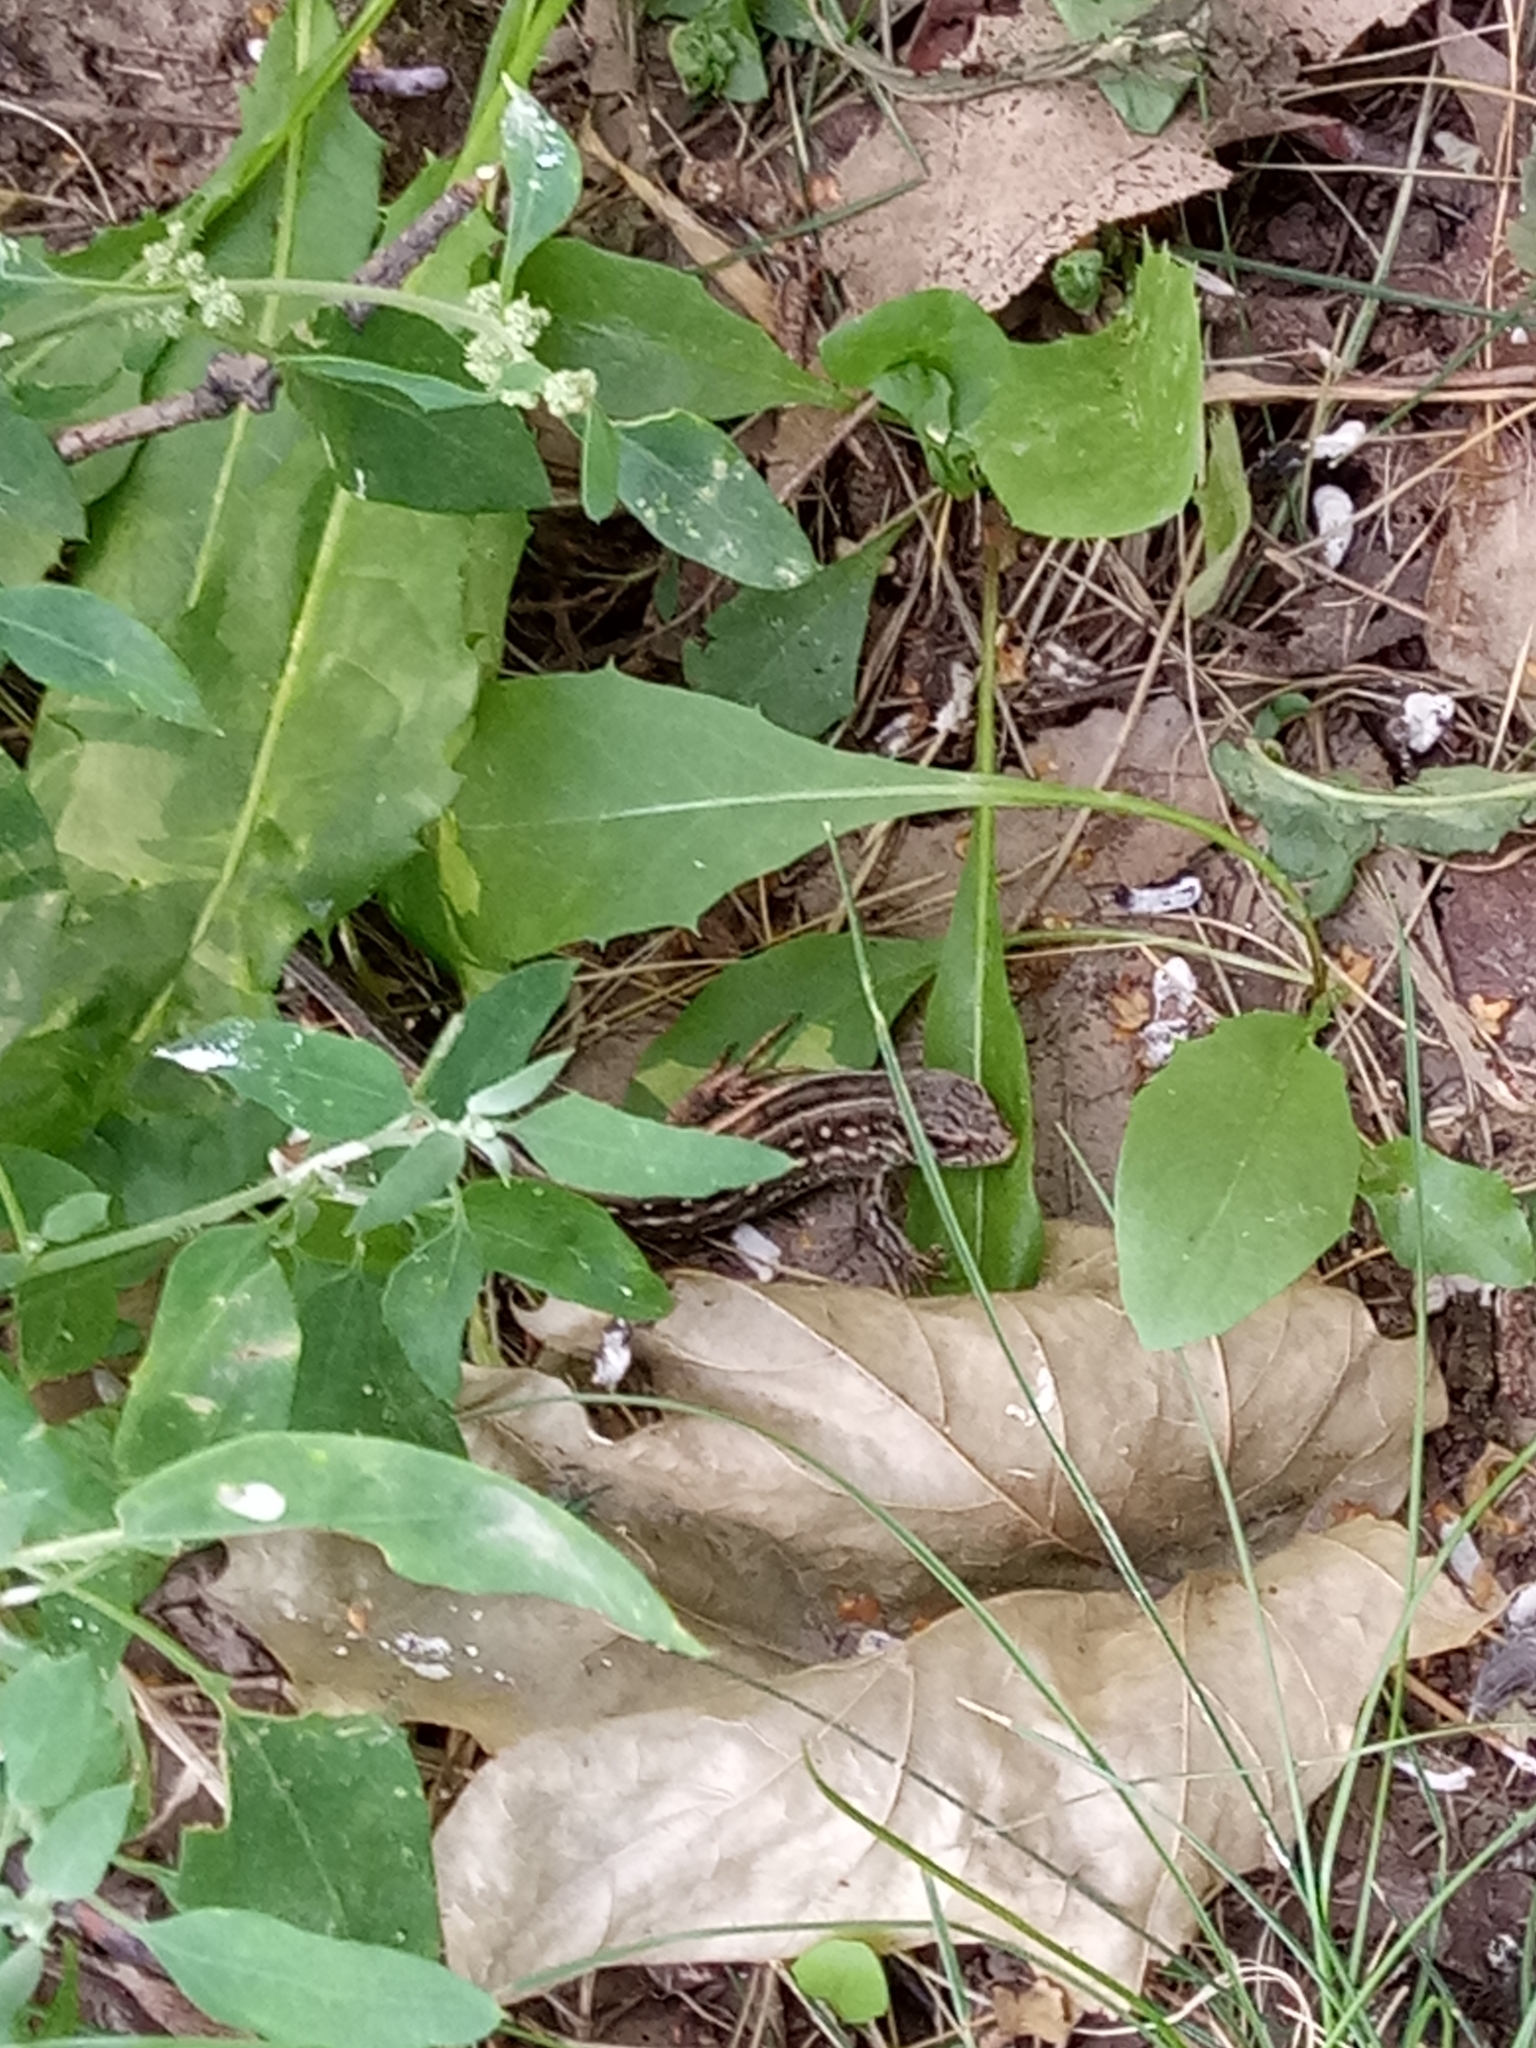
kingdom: Animalia
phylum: Chordata
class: Squamata
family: Lacertidae
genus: Lacerta
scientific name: Lacerta agilis
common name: Sand lizard
